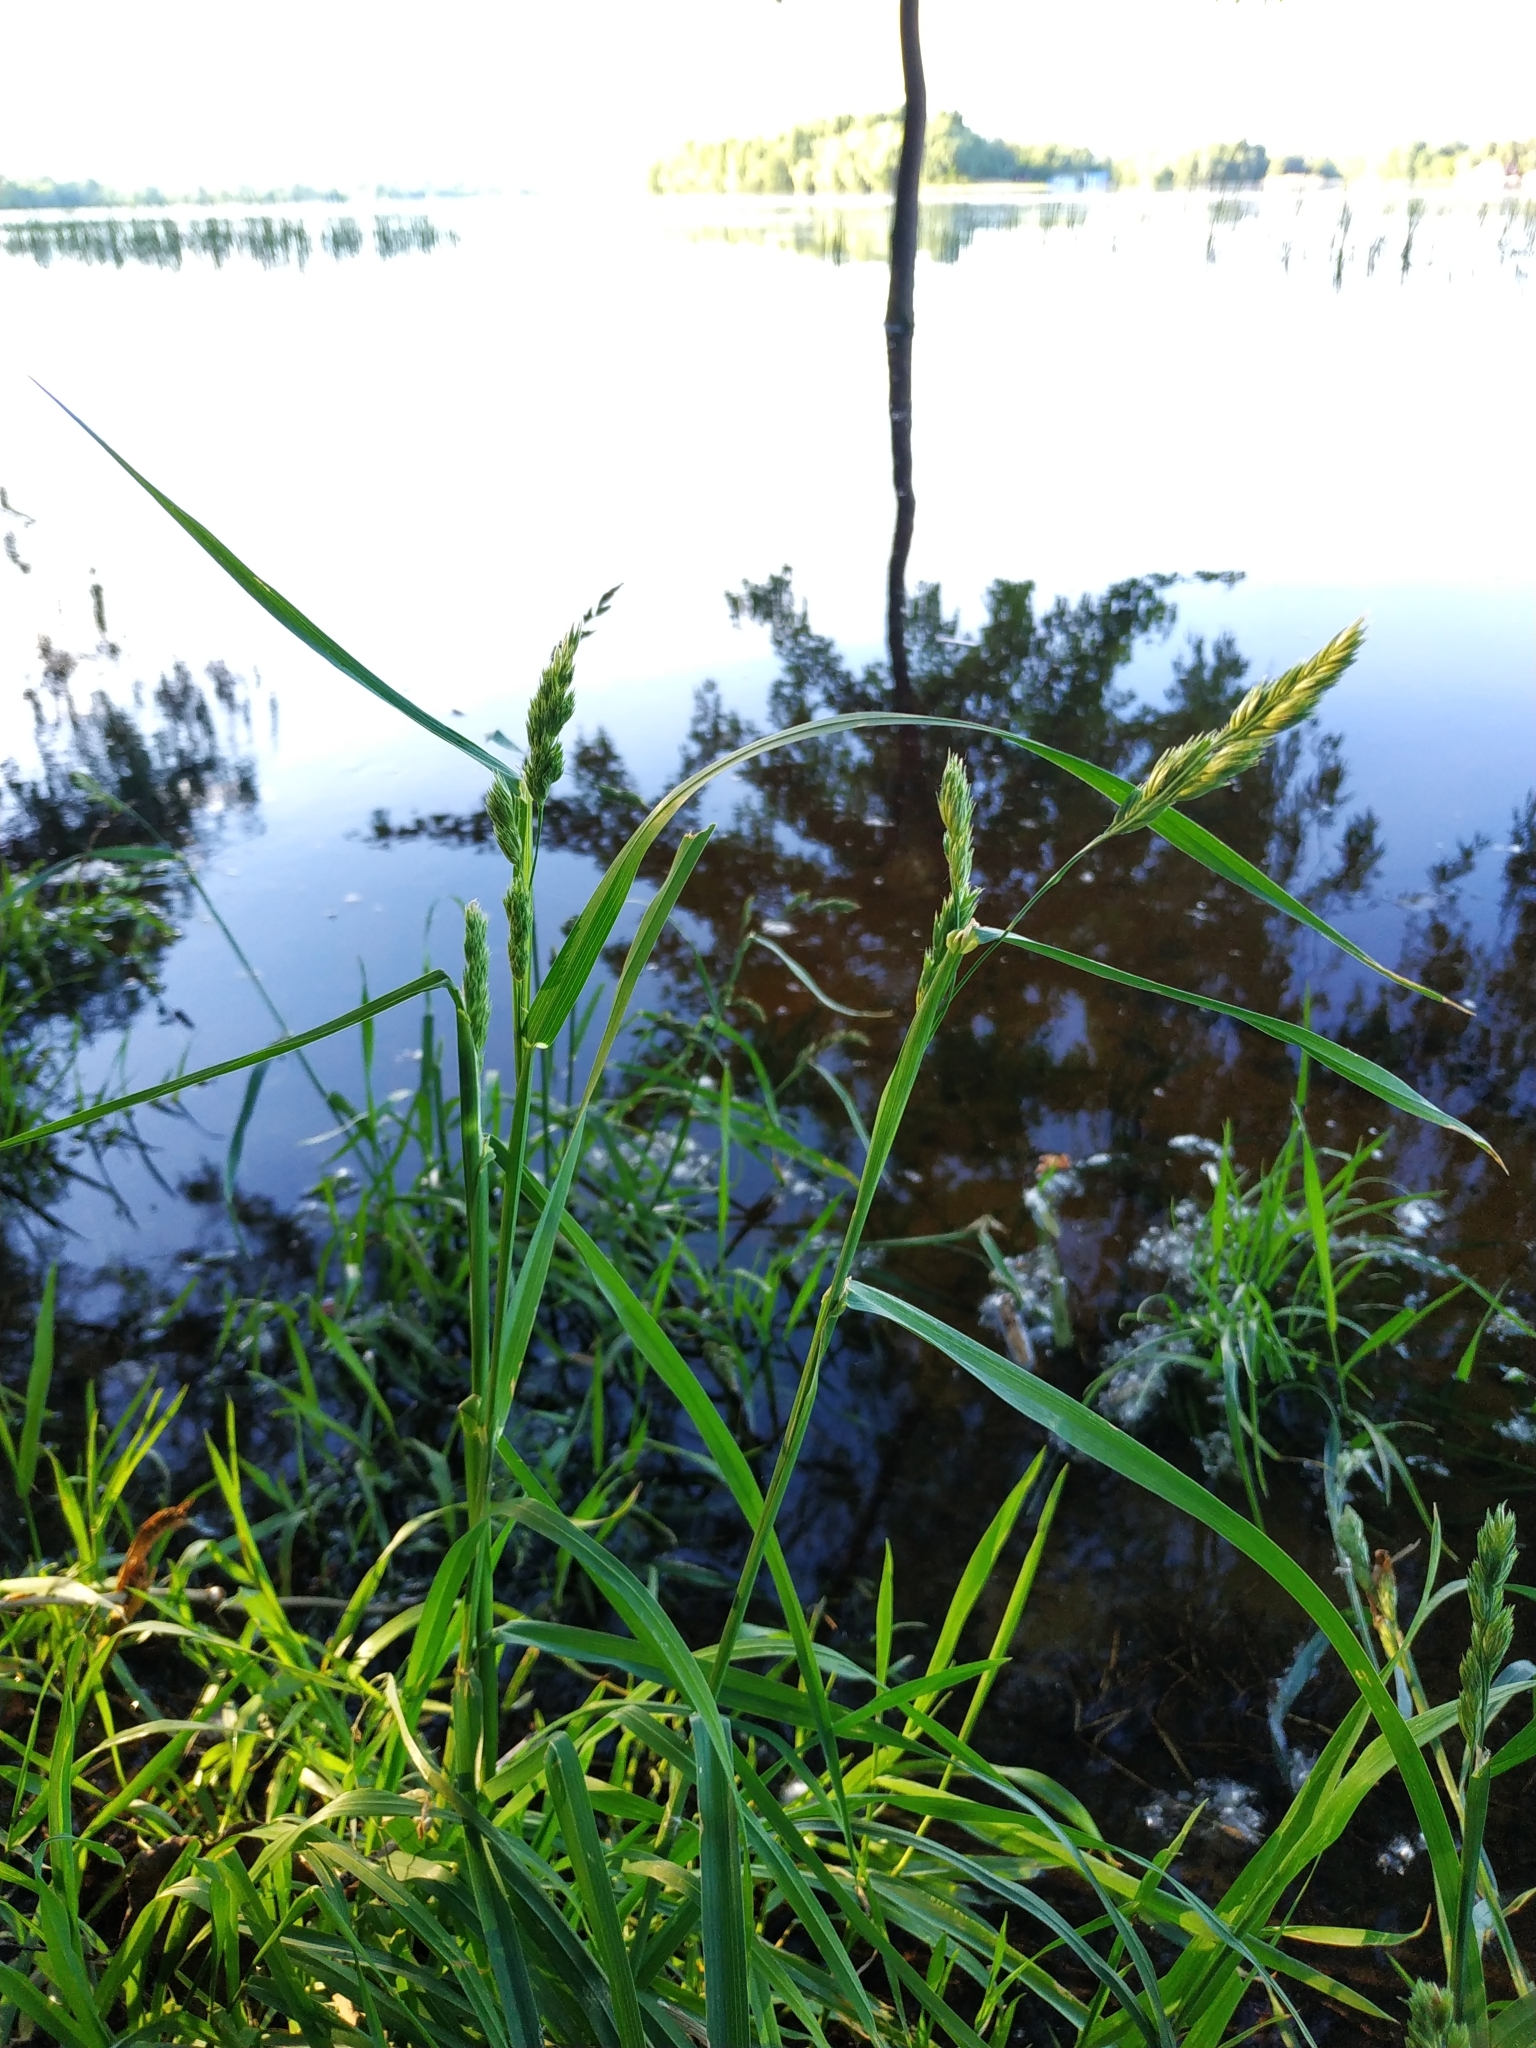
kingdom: Plantae
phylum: Tracheophyta
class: Liliopsida
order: Poales
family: Poaceae
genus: Dactylis
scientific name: Dactylis glomerata
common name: Orchardgrass
